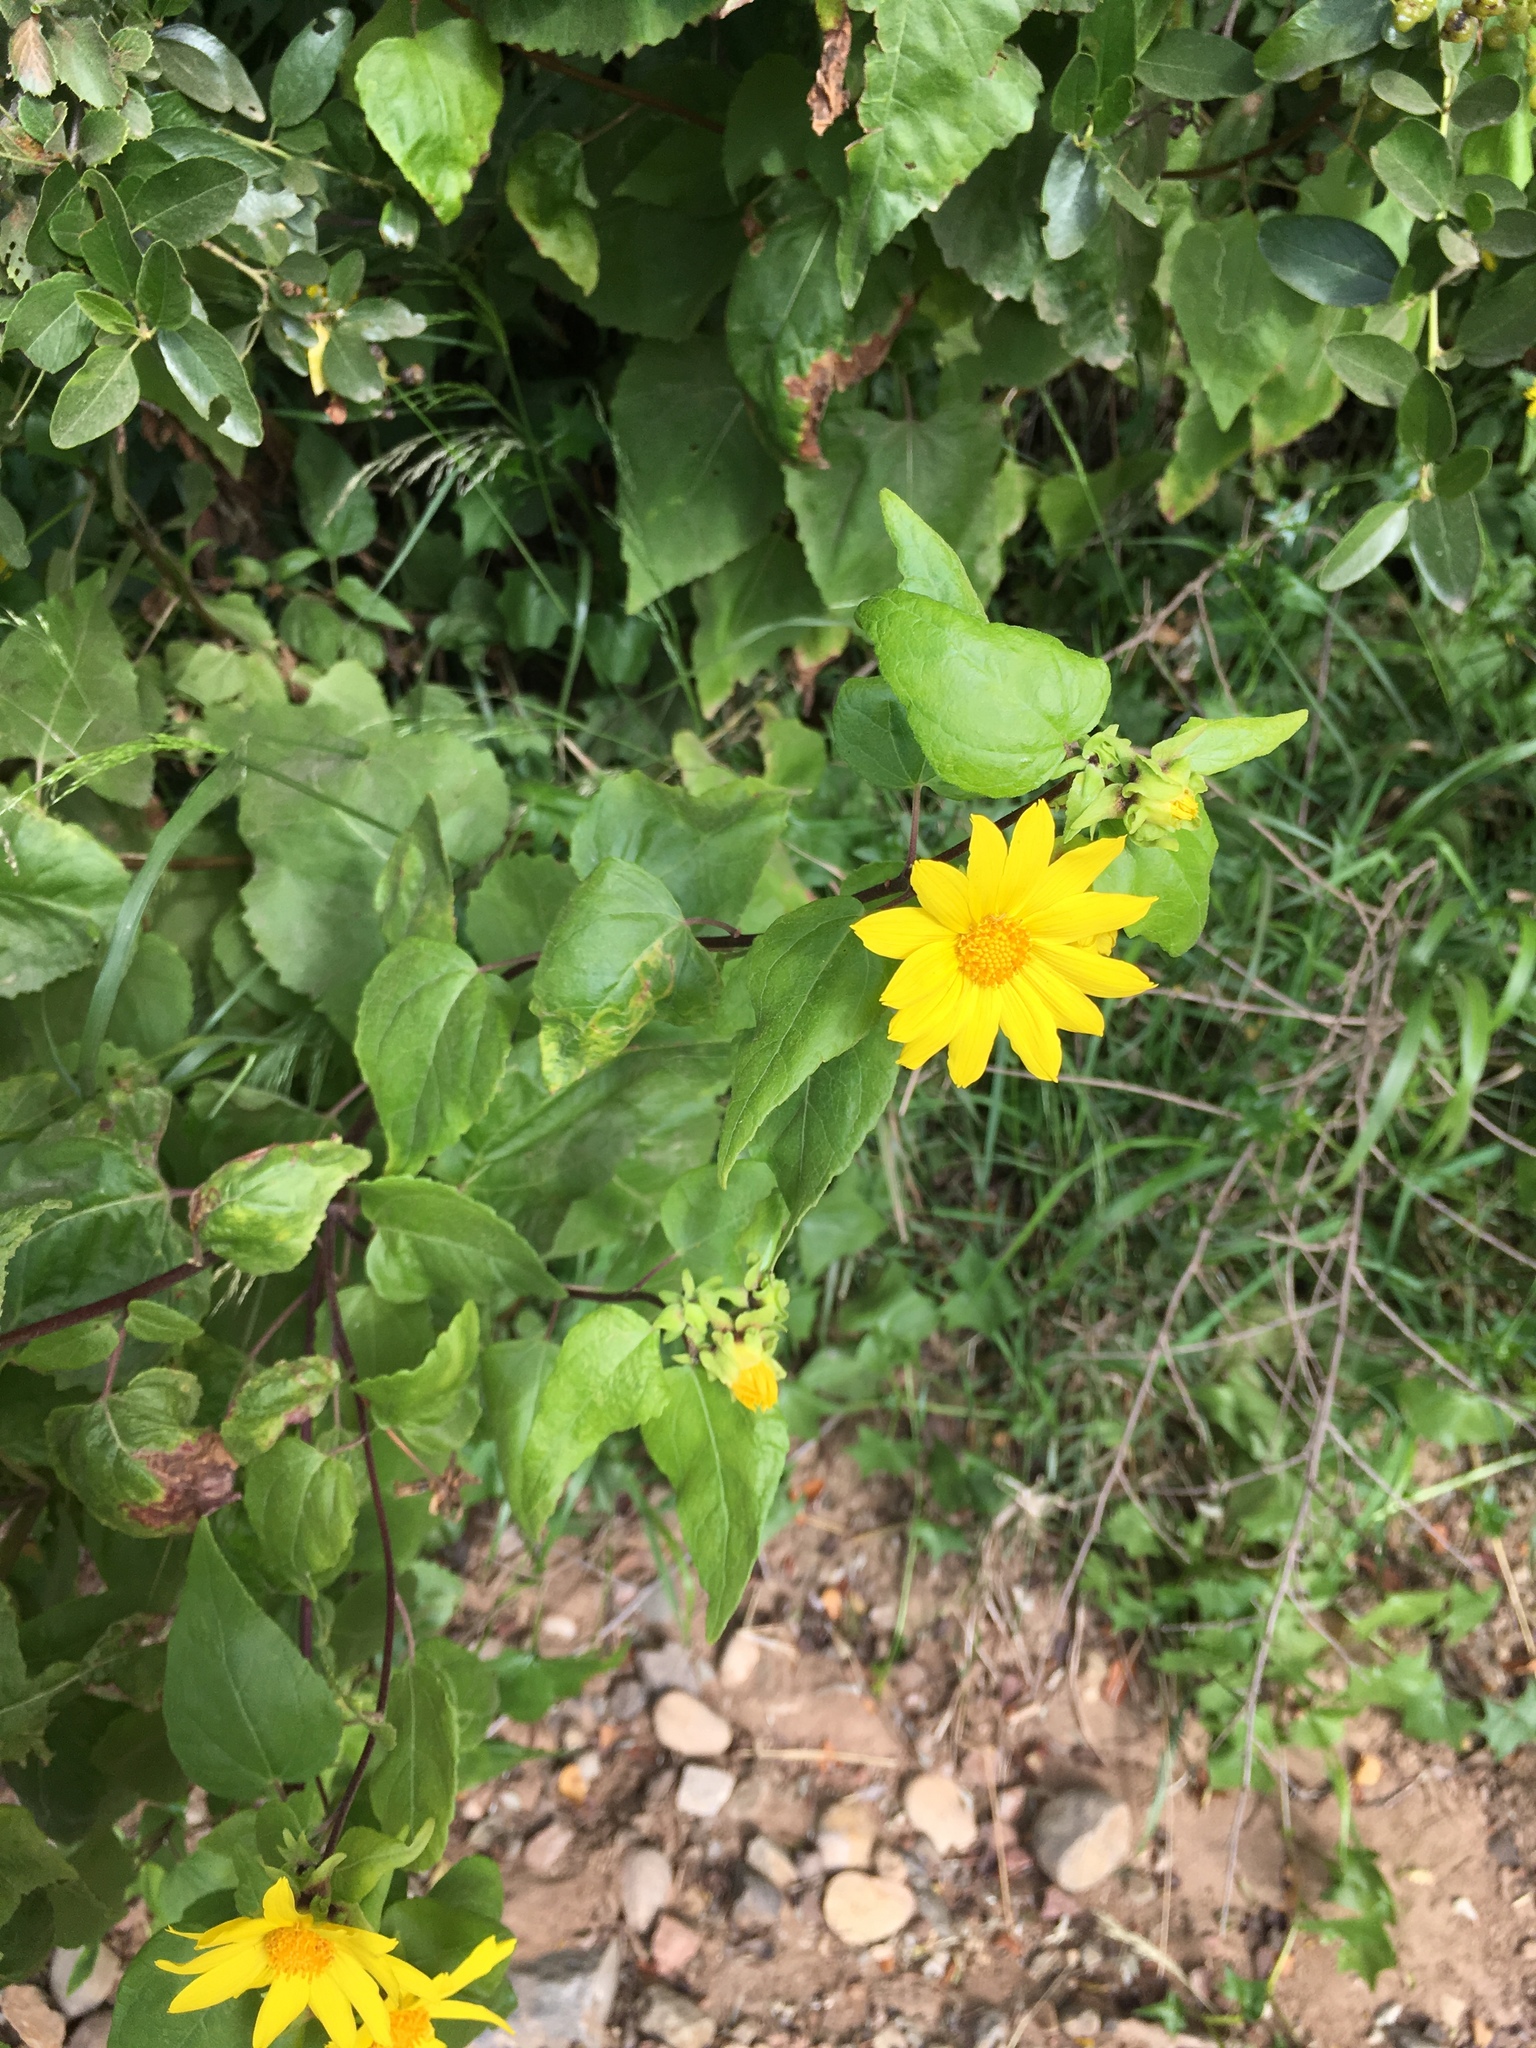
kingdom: Plantae
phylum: Tracheophyta
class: Magnoliopsida
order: Asterales
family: Asteraceae
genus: Venegasia
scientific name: Venegasia carpesioides
